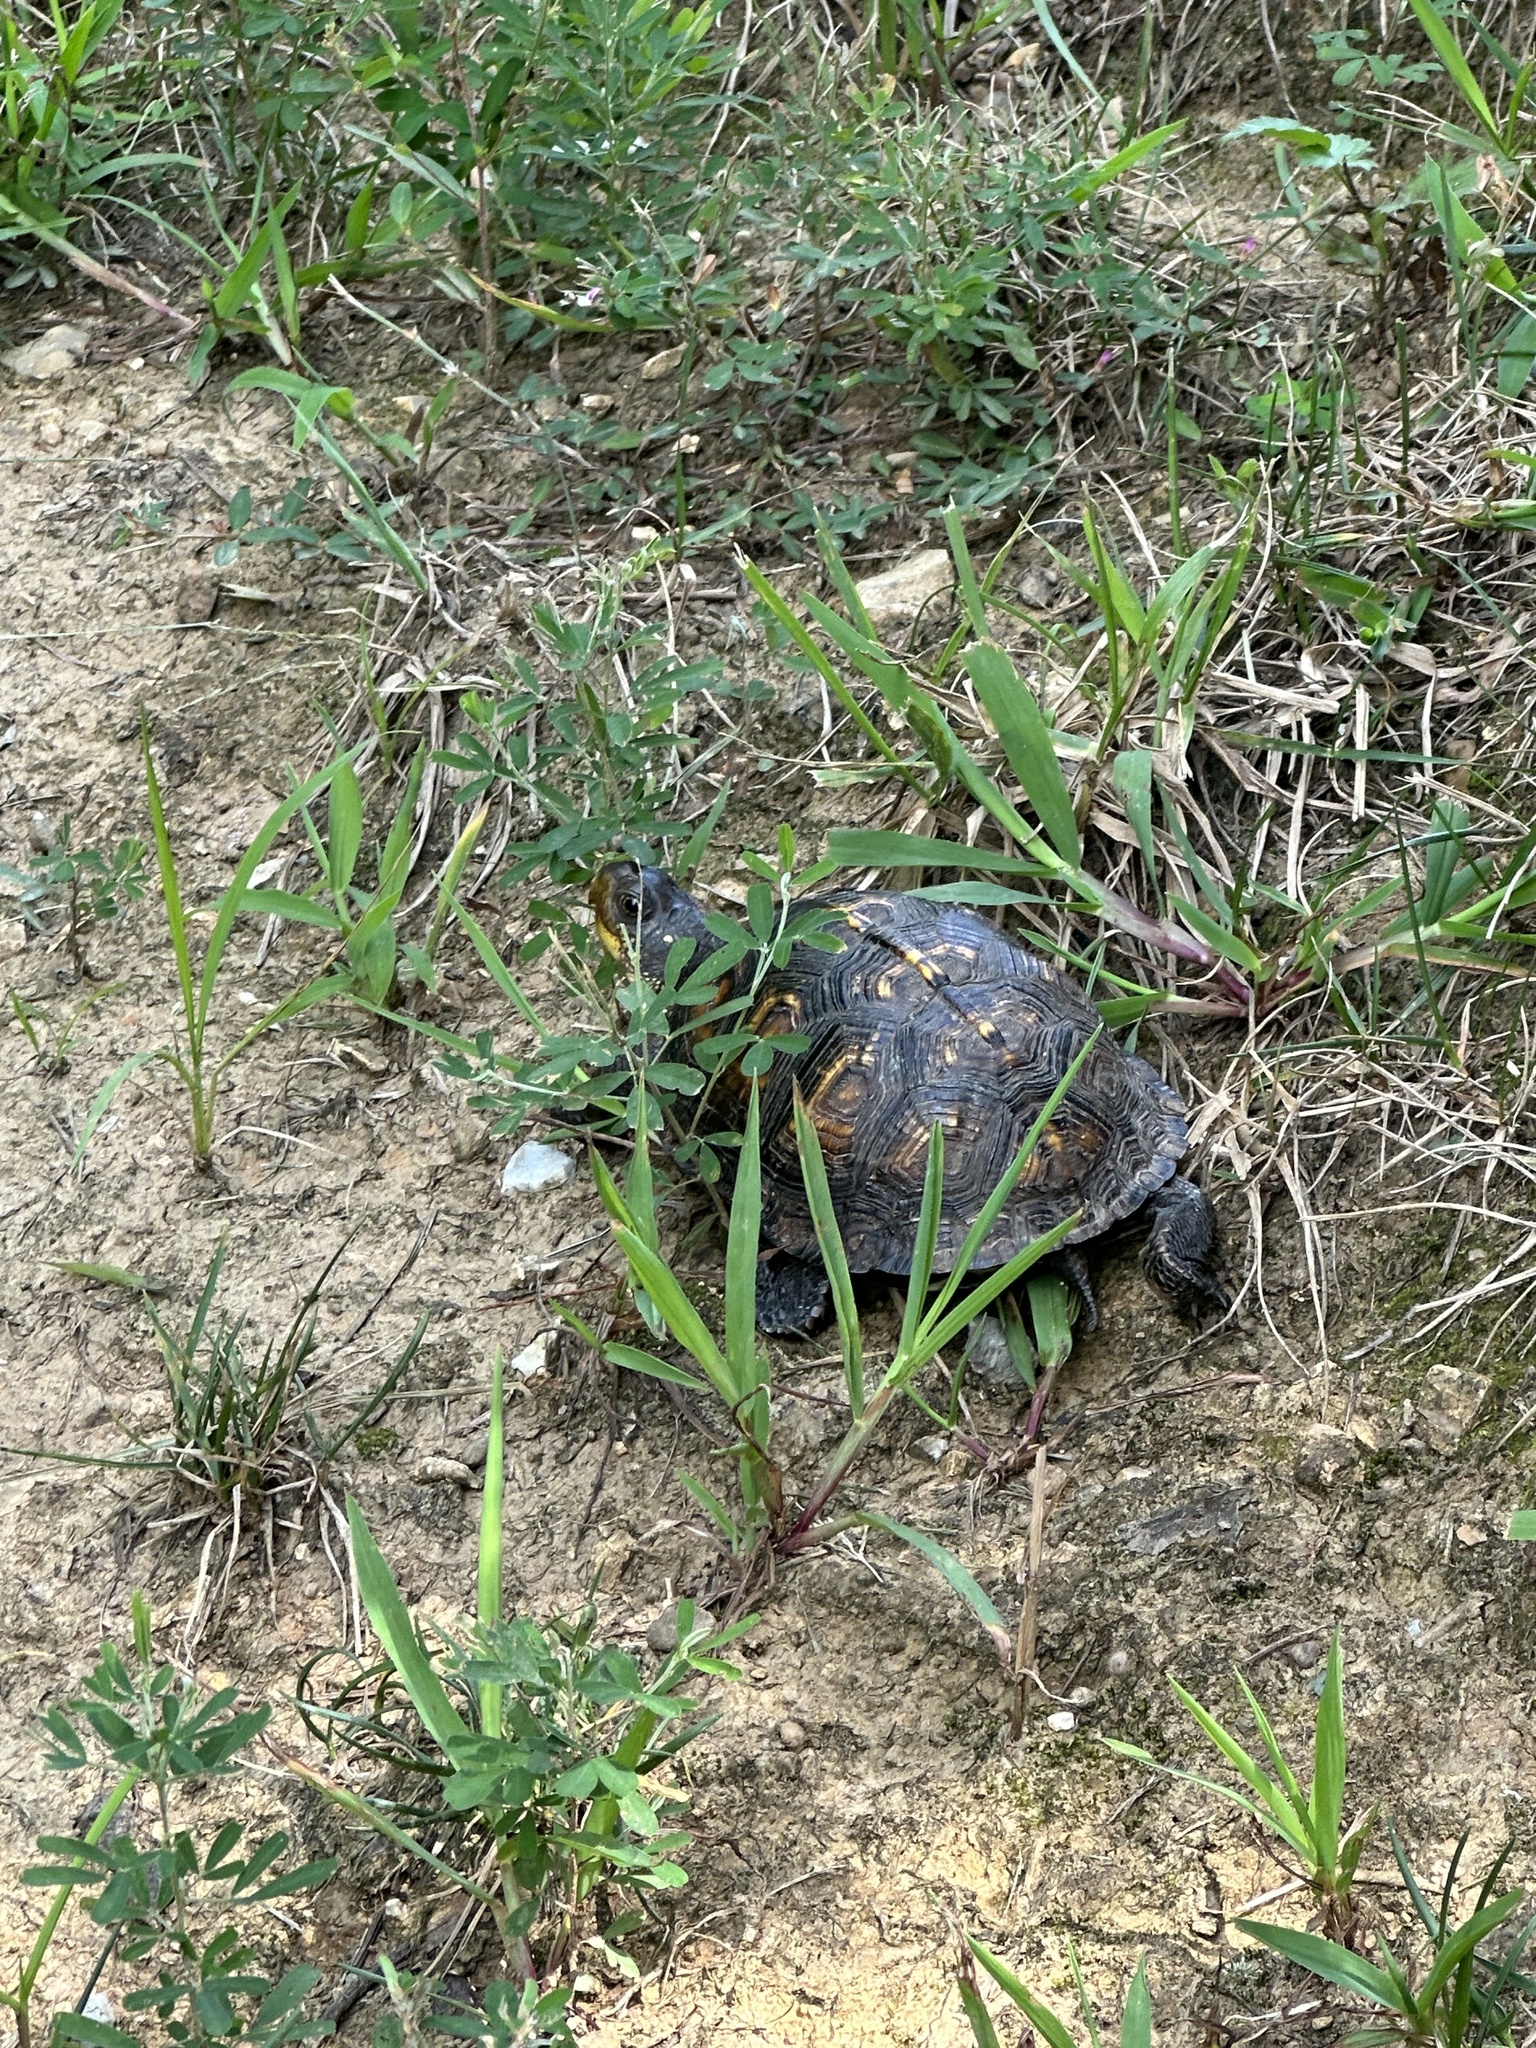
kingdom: Animalia
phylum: Chordata
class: Testudines
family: Emydidae
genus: Terrapene
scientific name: Terrapene carolina
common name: Common box turtle
